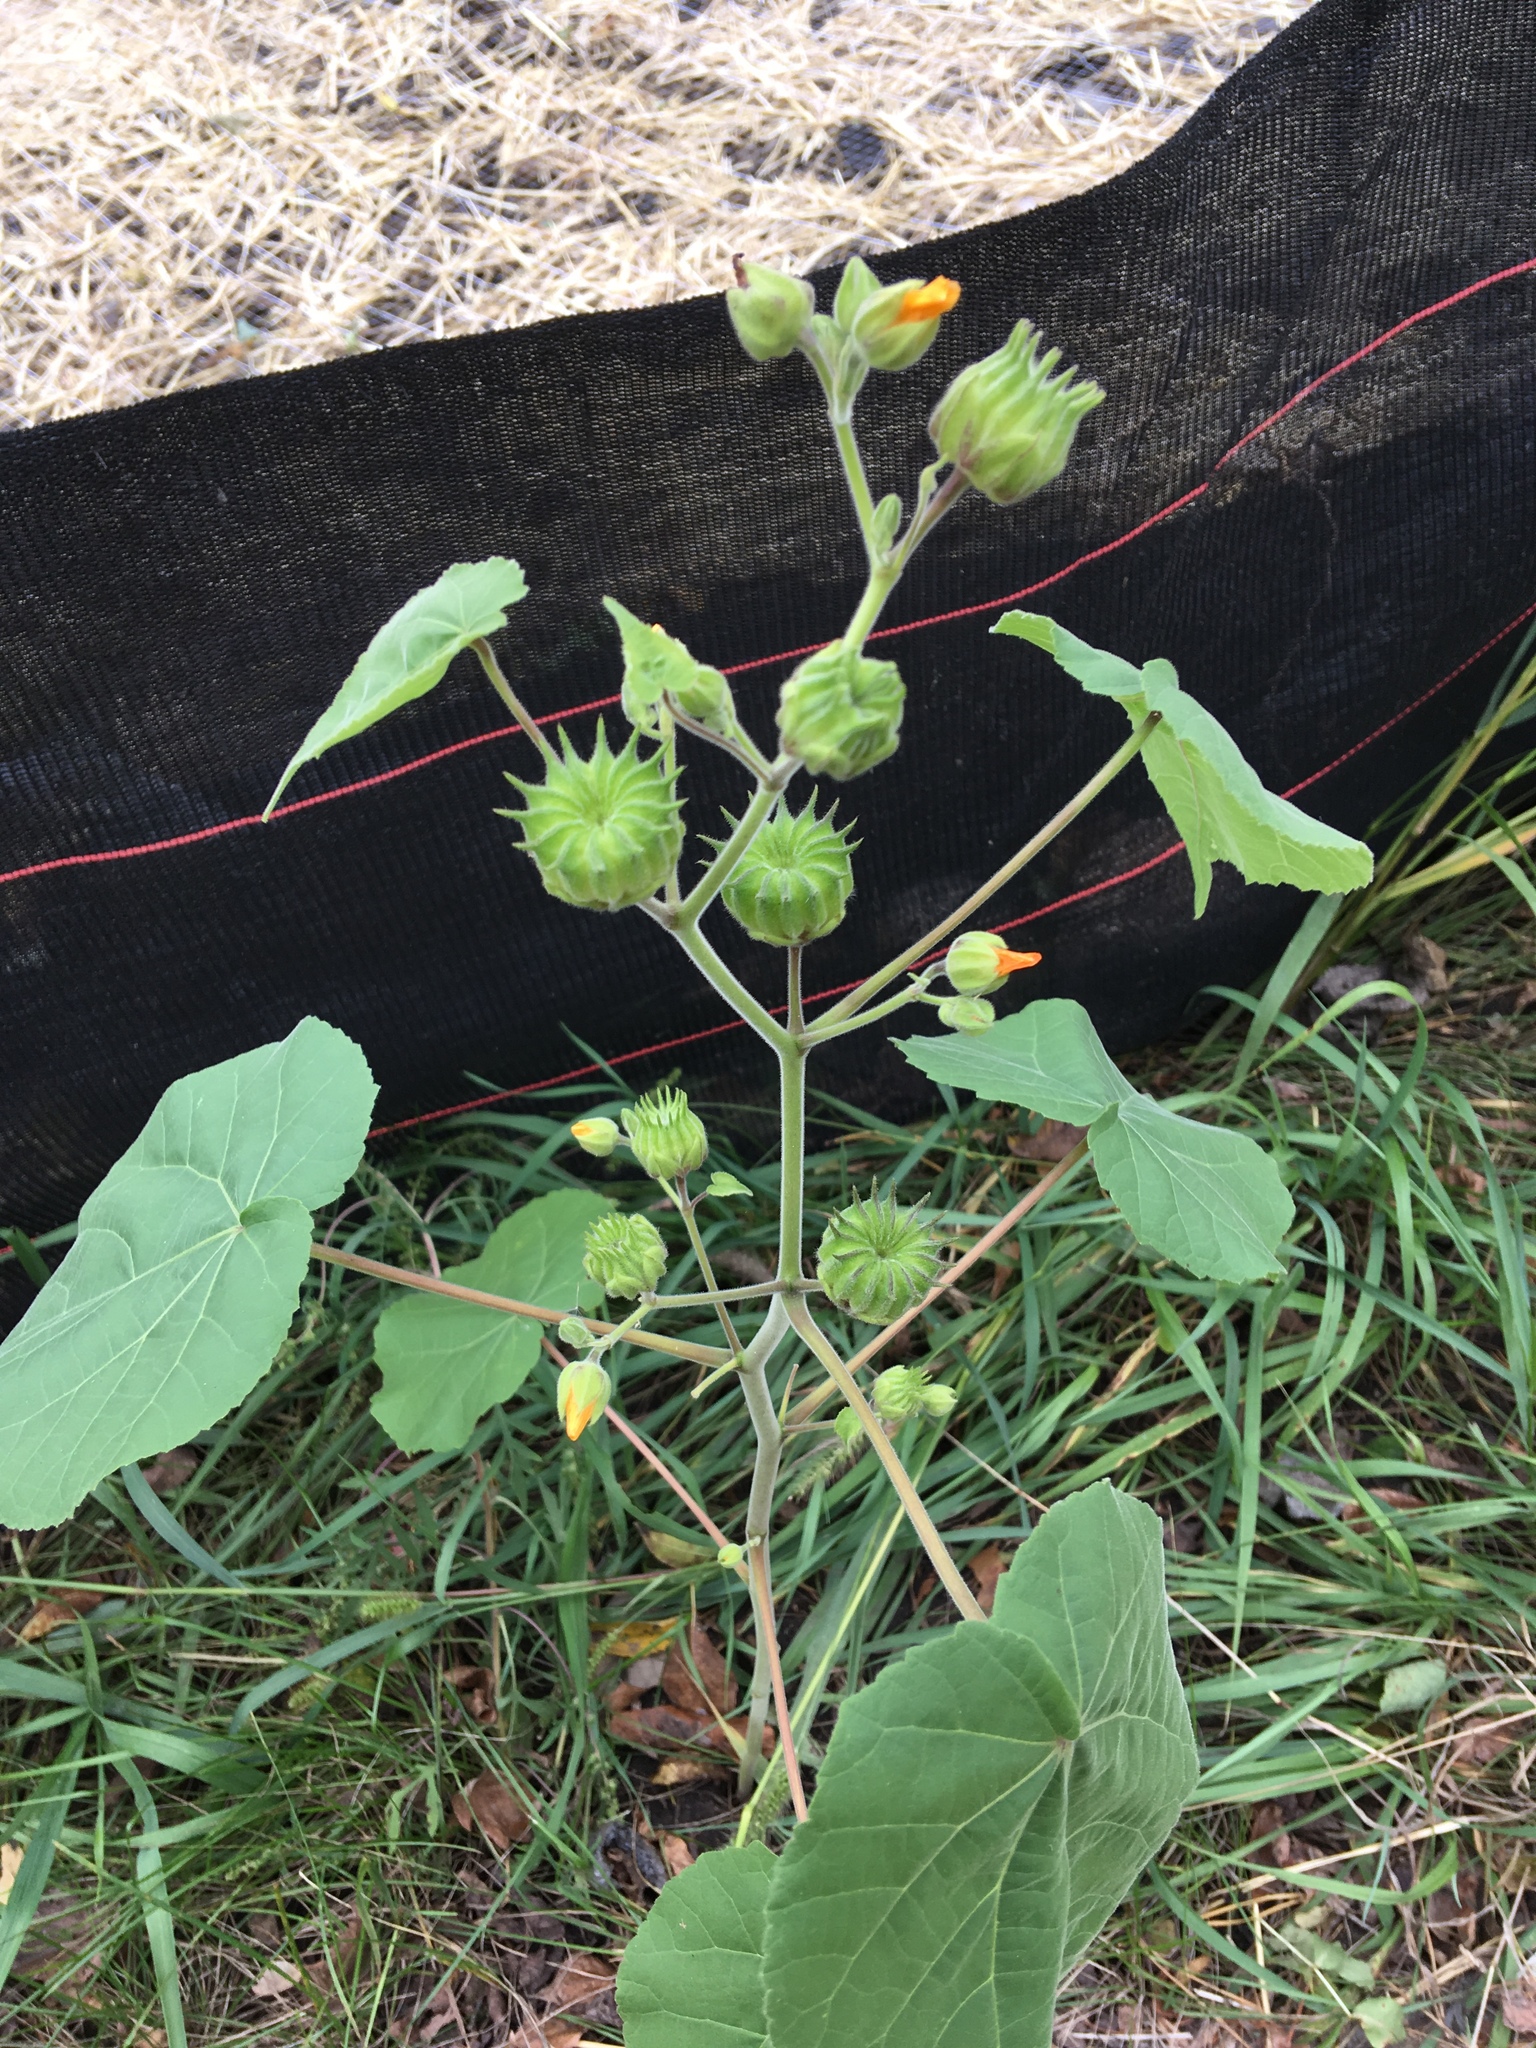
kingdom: Plantae
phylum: Tracheophyta
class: Magnoliopsida
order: Malvales
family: Malvaceae
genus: Abutilon
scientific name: Abutilon theophrasti
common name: Velvetleaf
